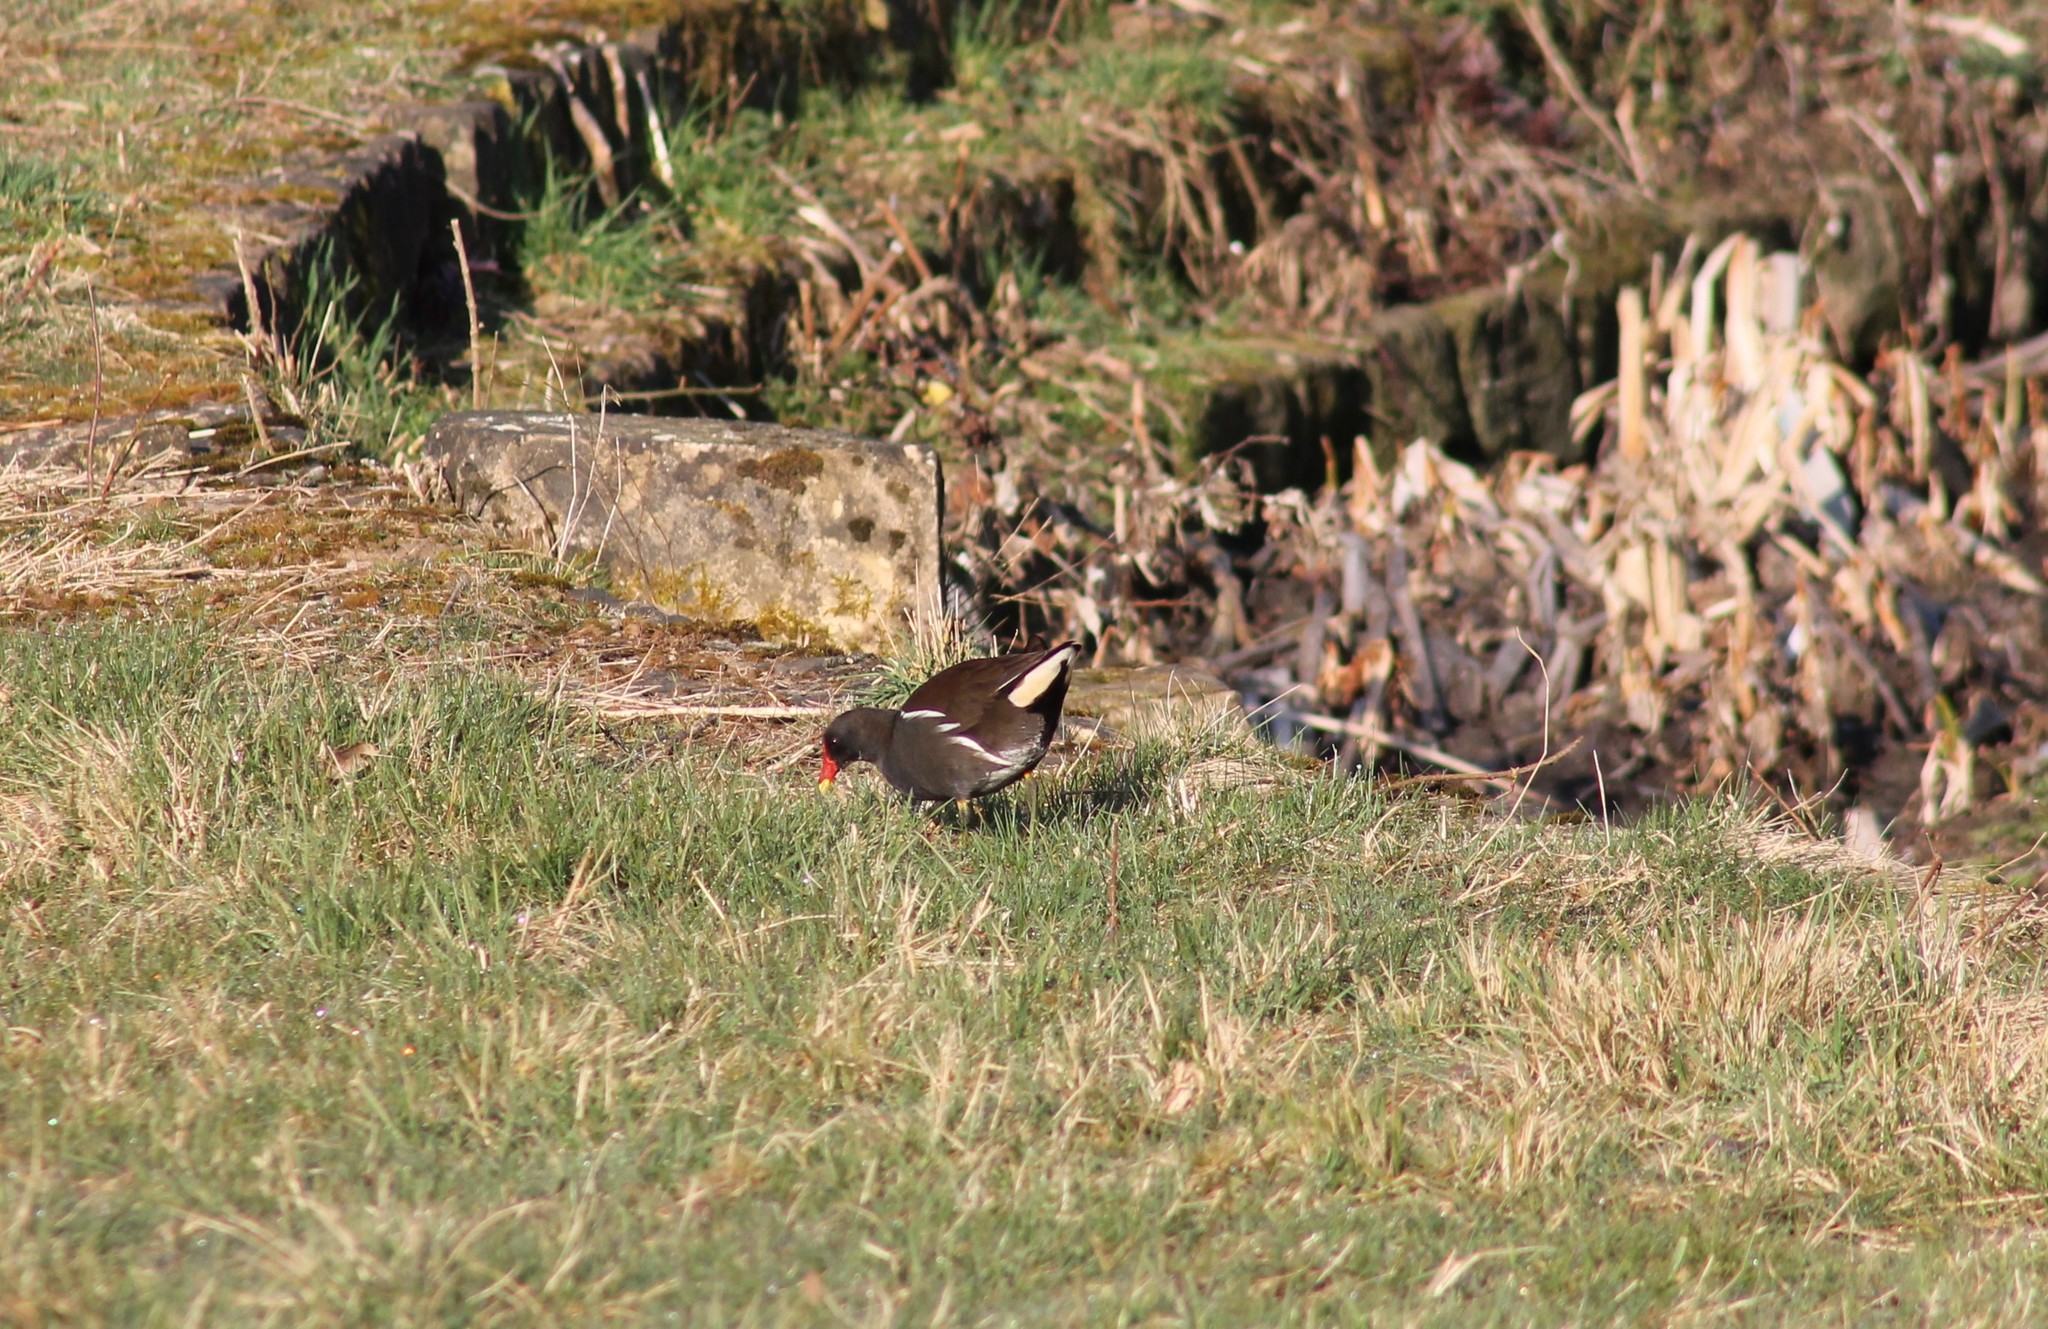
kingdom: Animalia
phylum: Chordata
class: Aves
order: Gruiformes
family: Rallidae
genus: Gallinula
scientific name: Gallinula chloropus
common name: Common moorhen
